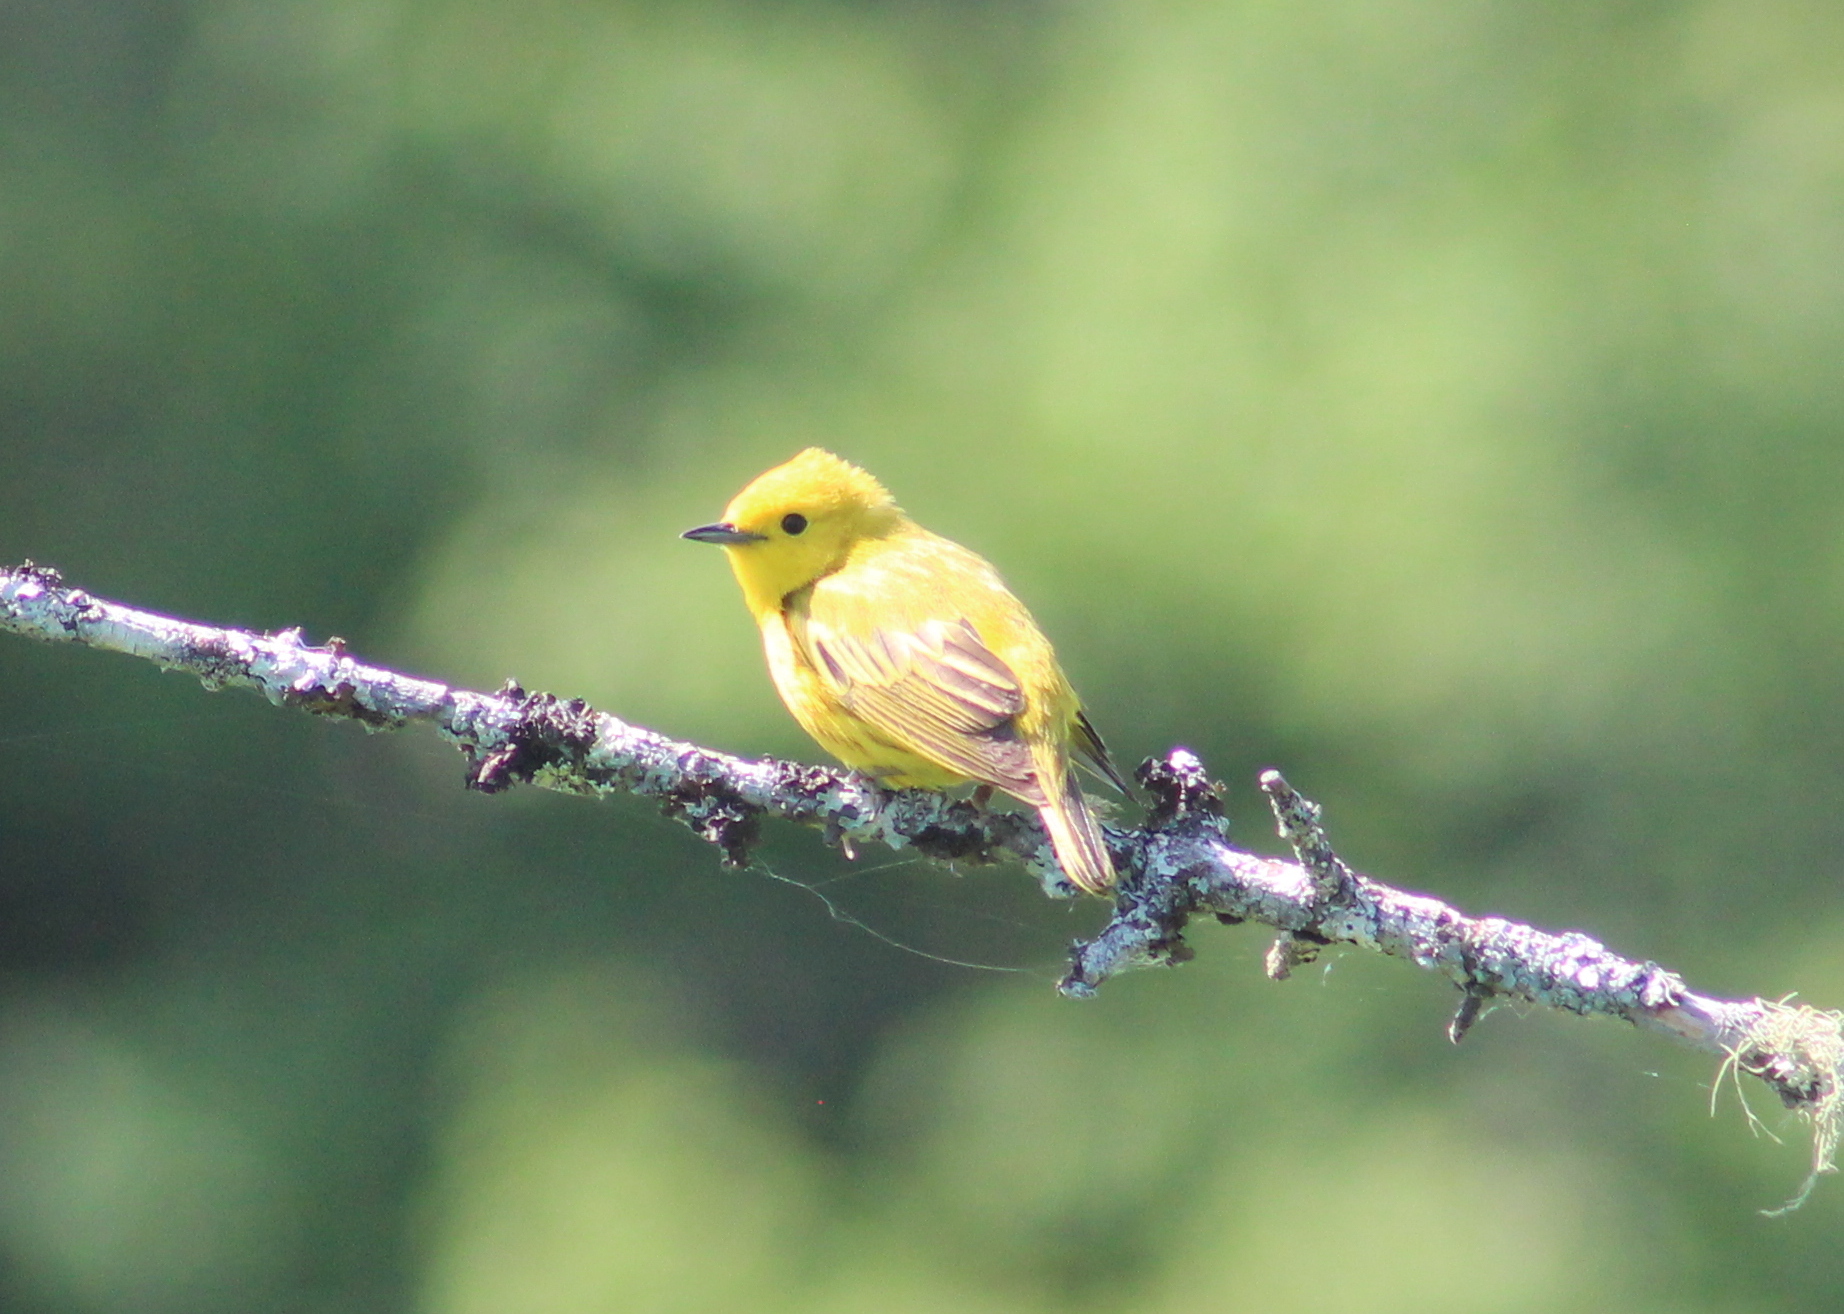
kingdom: Animalia
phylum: Chordata
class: Aves
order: Passeriformes
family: Parulidae
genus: Setophaga
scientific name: Setophaga petechia
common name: Yellow warbler
